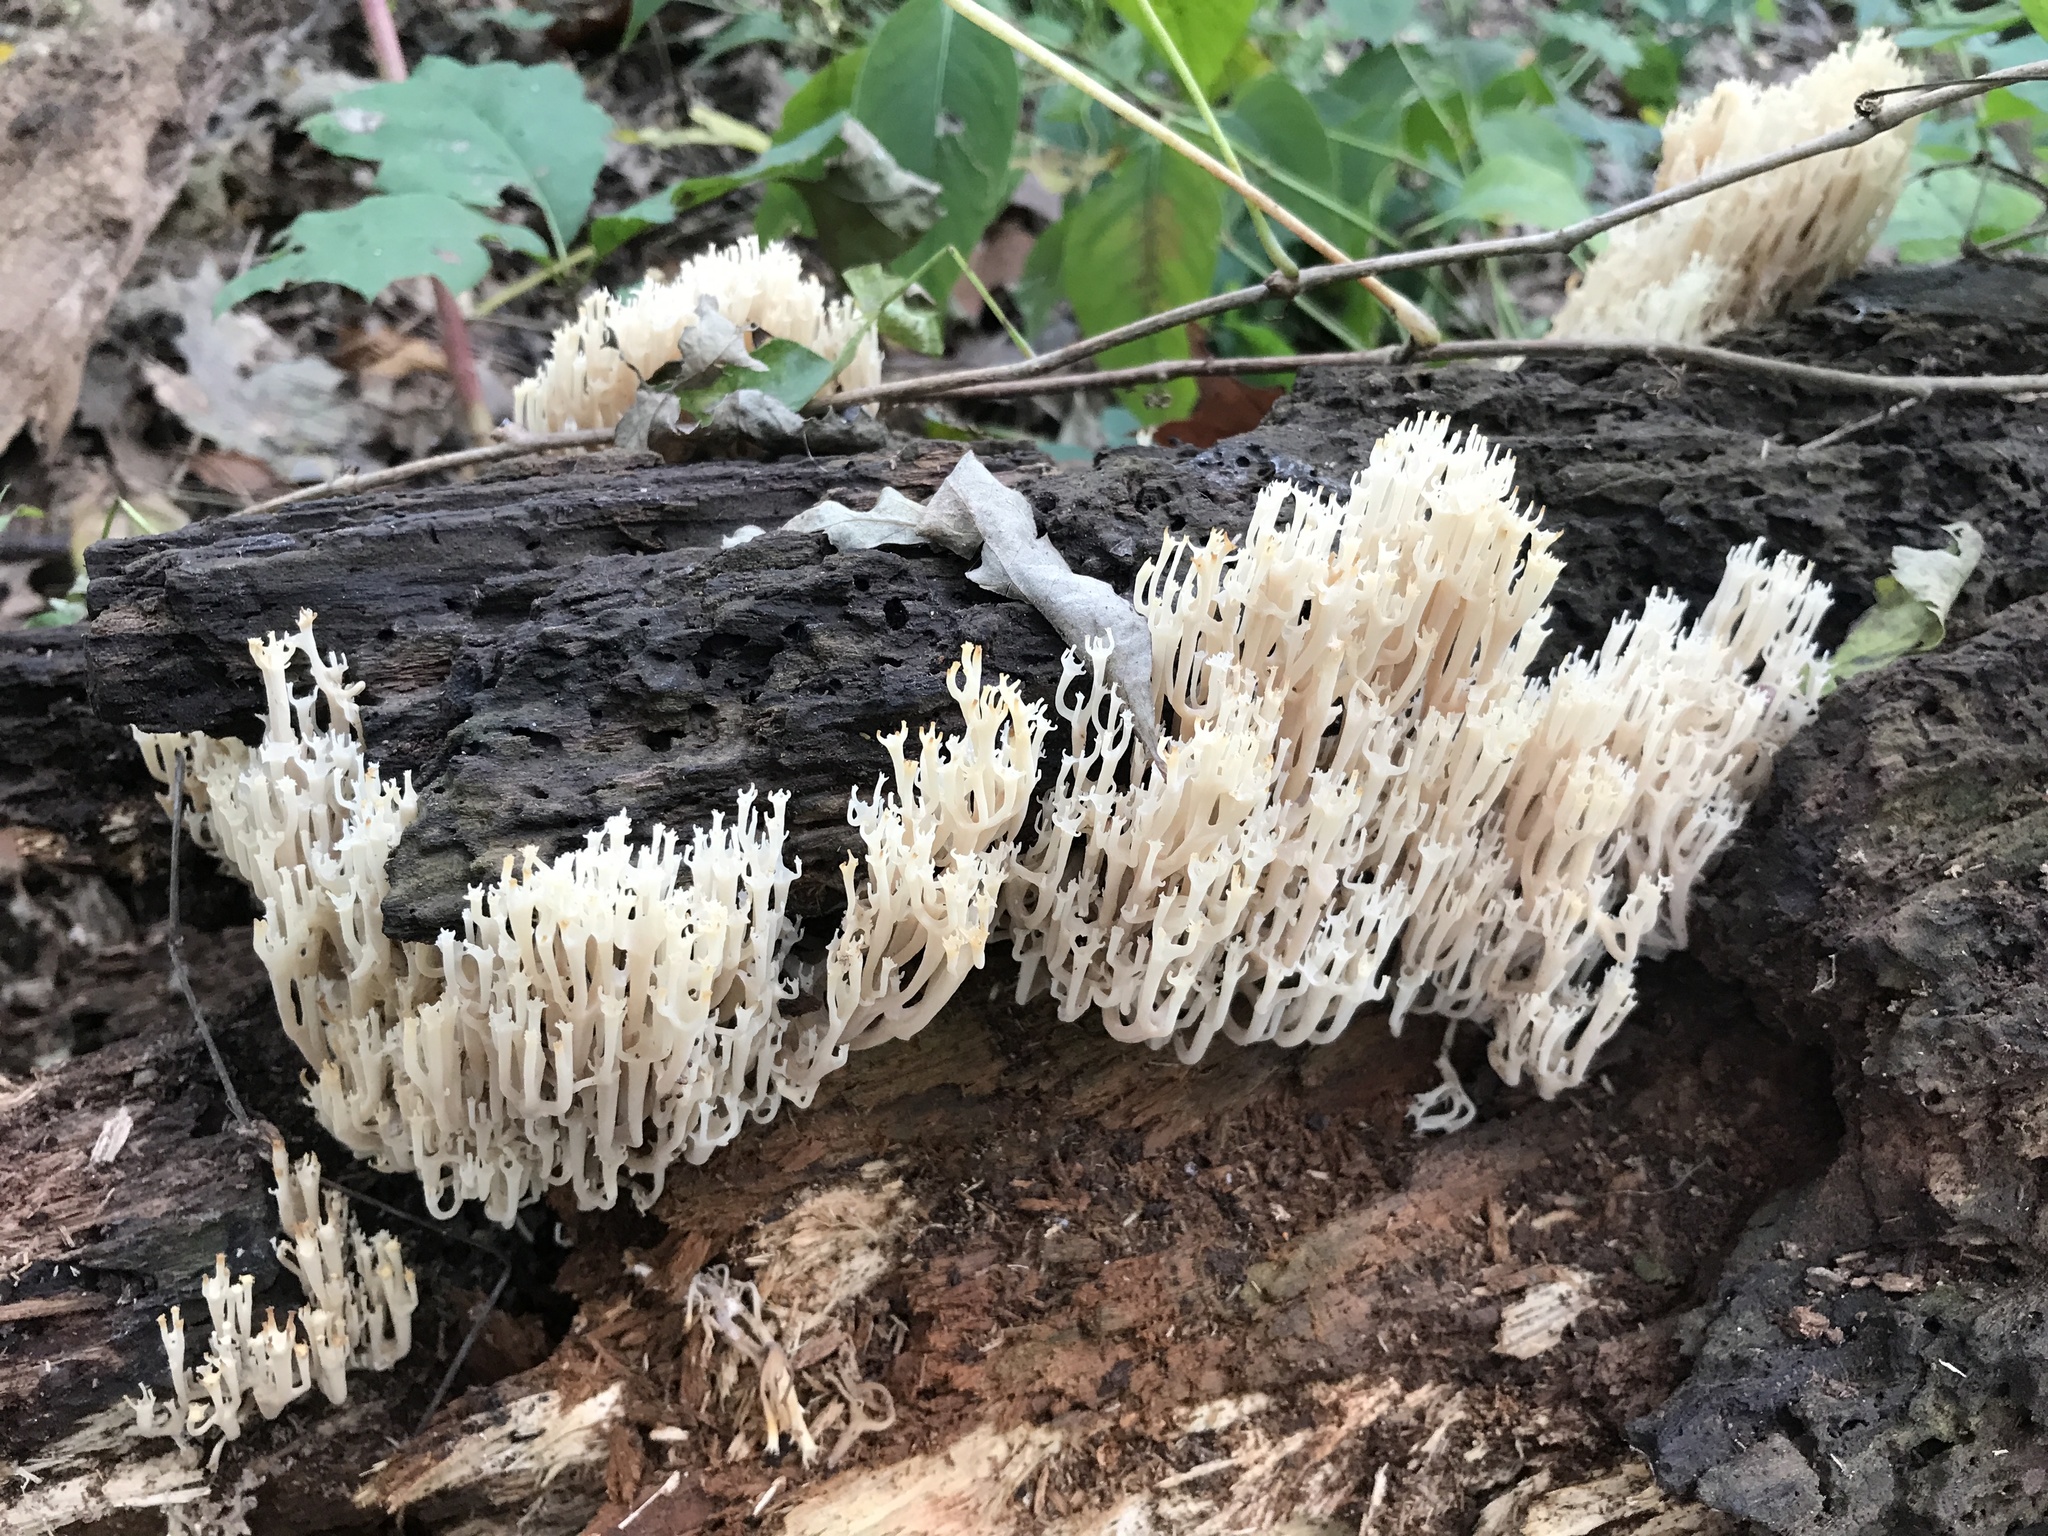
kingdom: Fungi
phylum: Basidiomycota
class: Agaricomycetes
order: Russulales
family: Auriscalpiaceae
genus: Artomyces
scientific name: Artomyces pyxidatus
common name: Crown-tipped coral fungus
